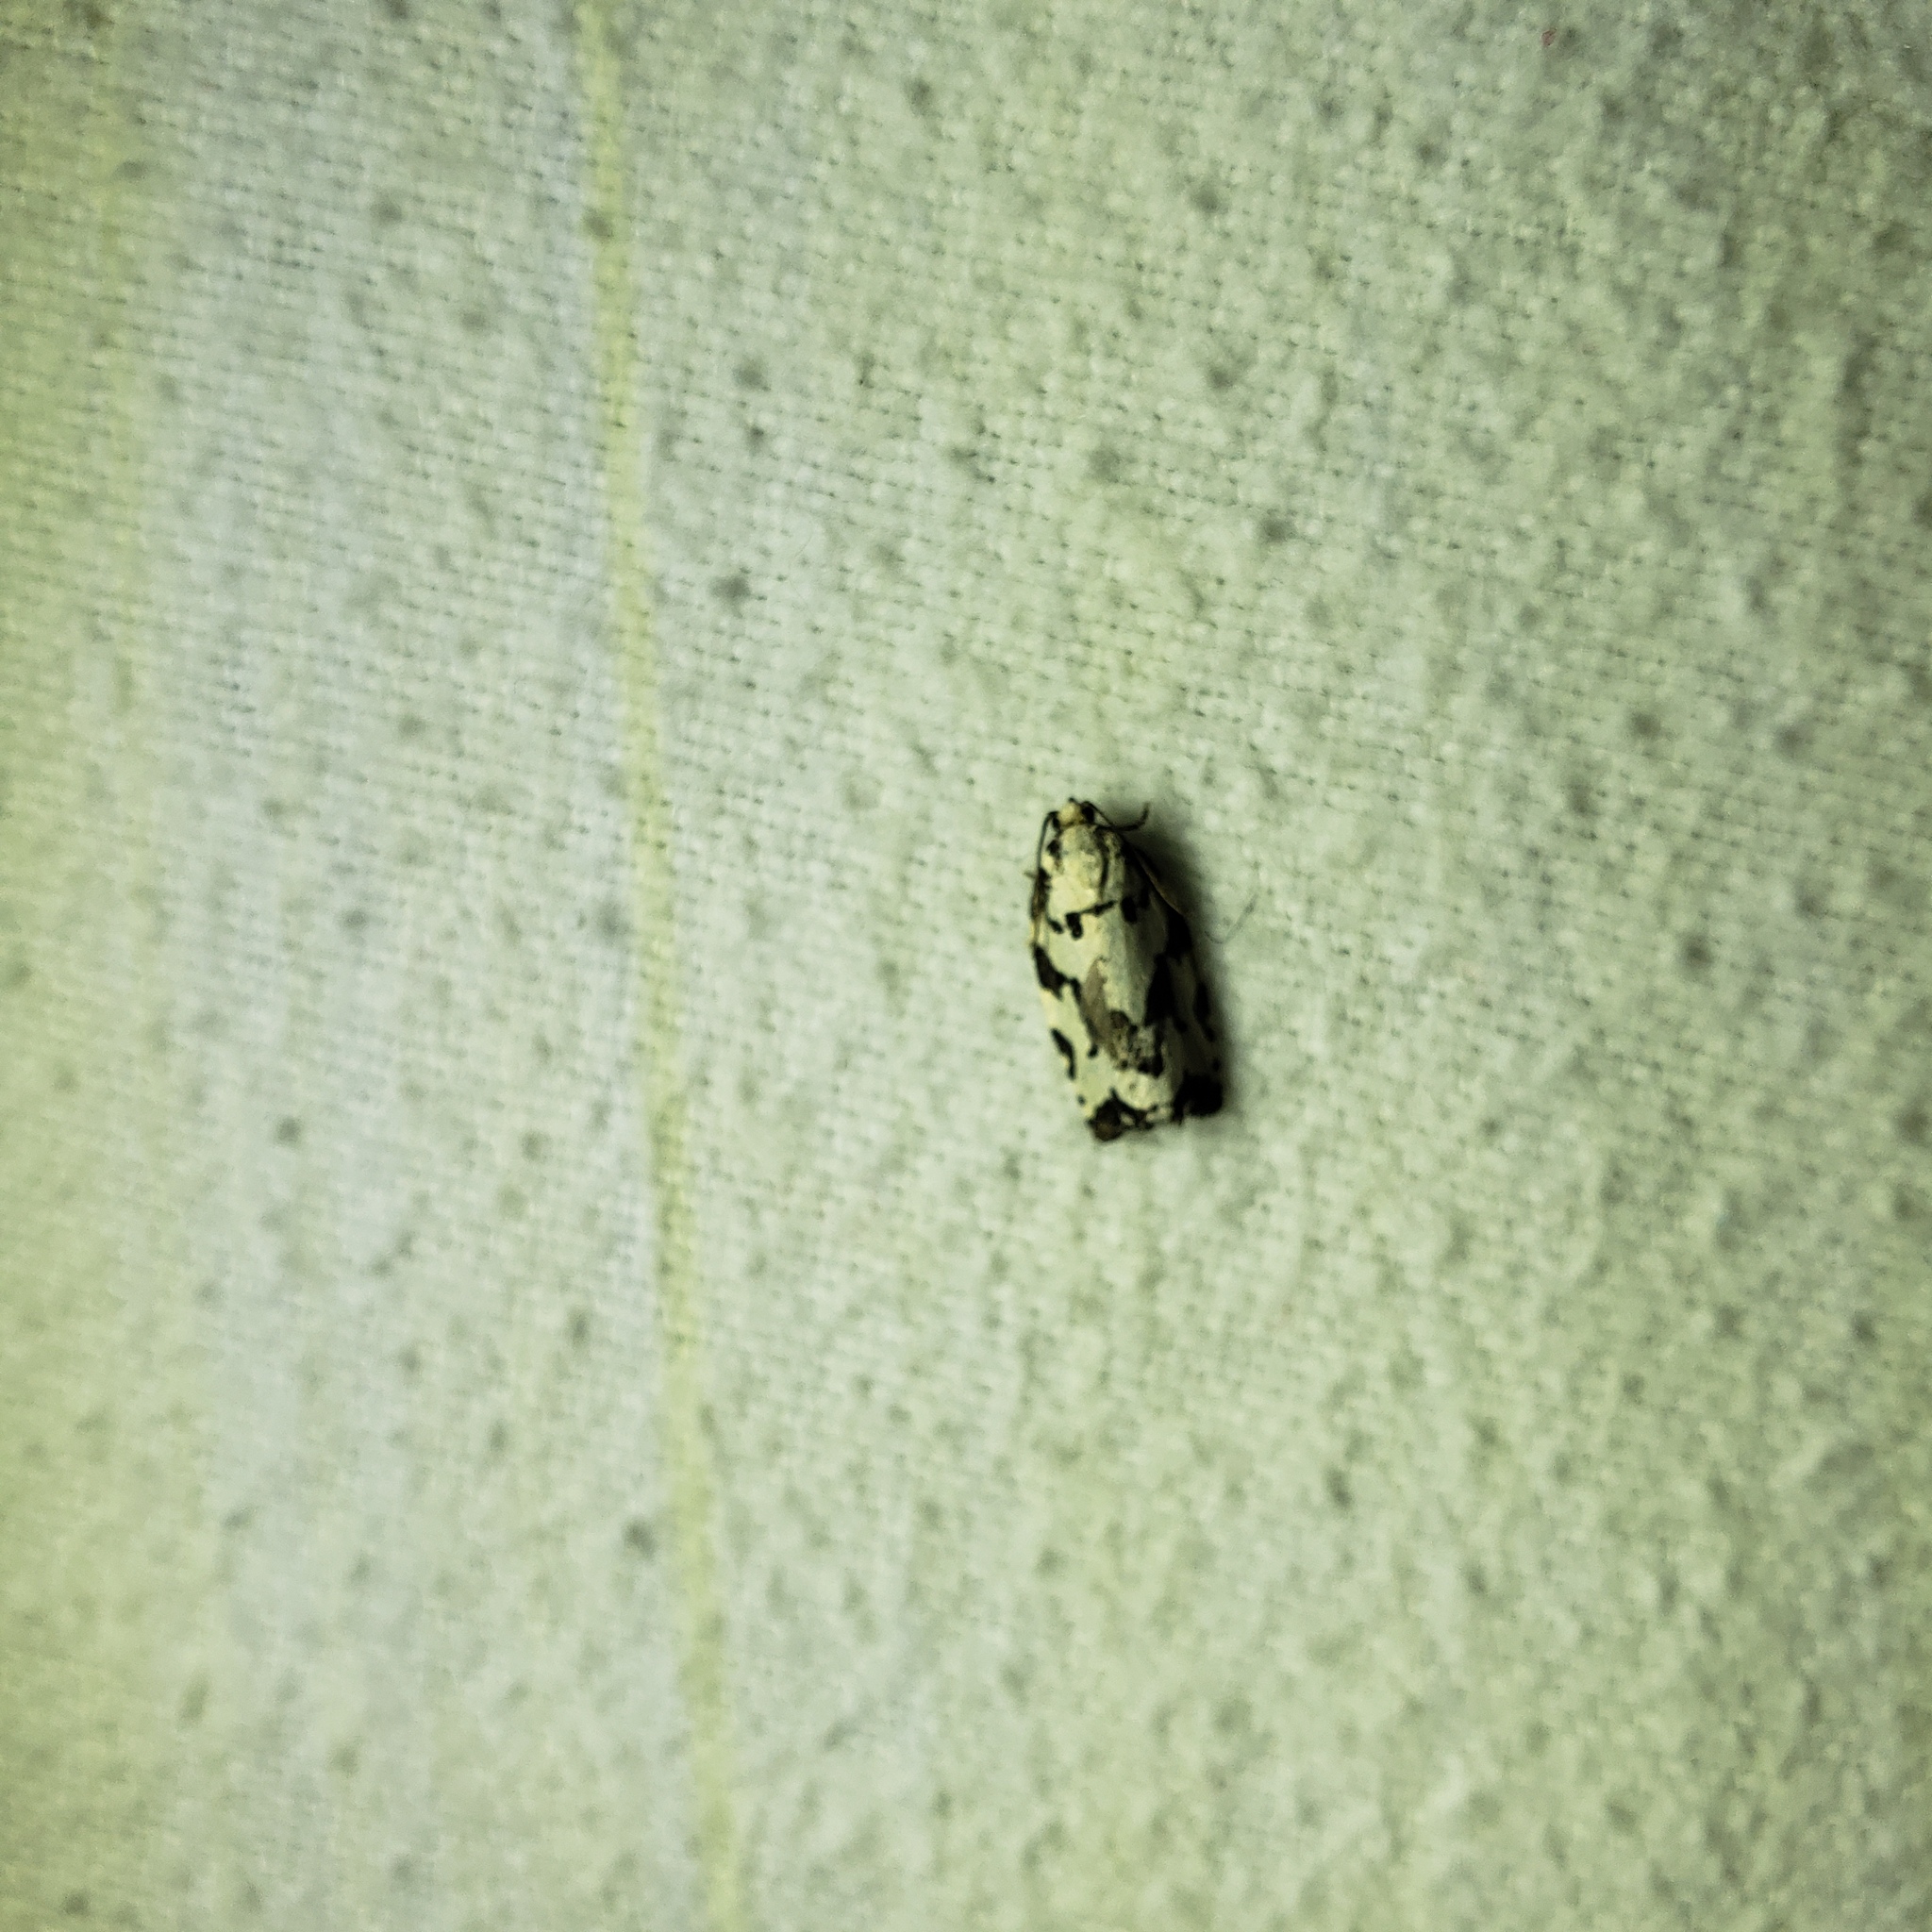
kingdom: Animalia
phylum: Arthropoda
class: Insecta
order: Lepidoptera
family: Tortricidae
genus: Archips
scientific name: Archips dissitana
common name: Boldly-marked archips moth
